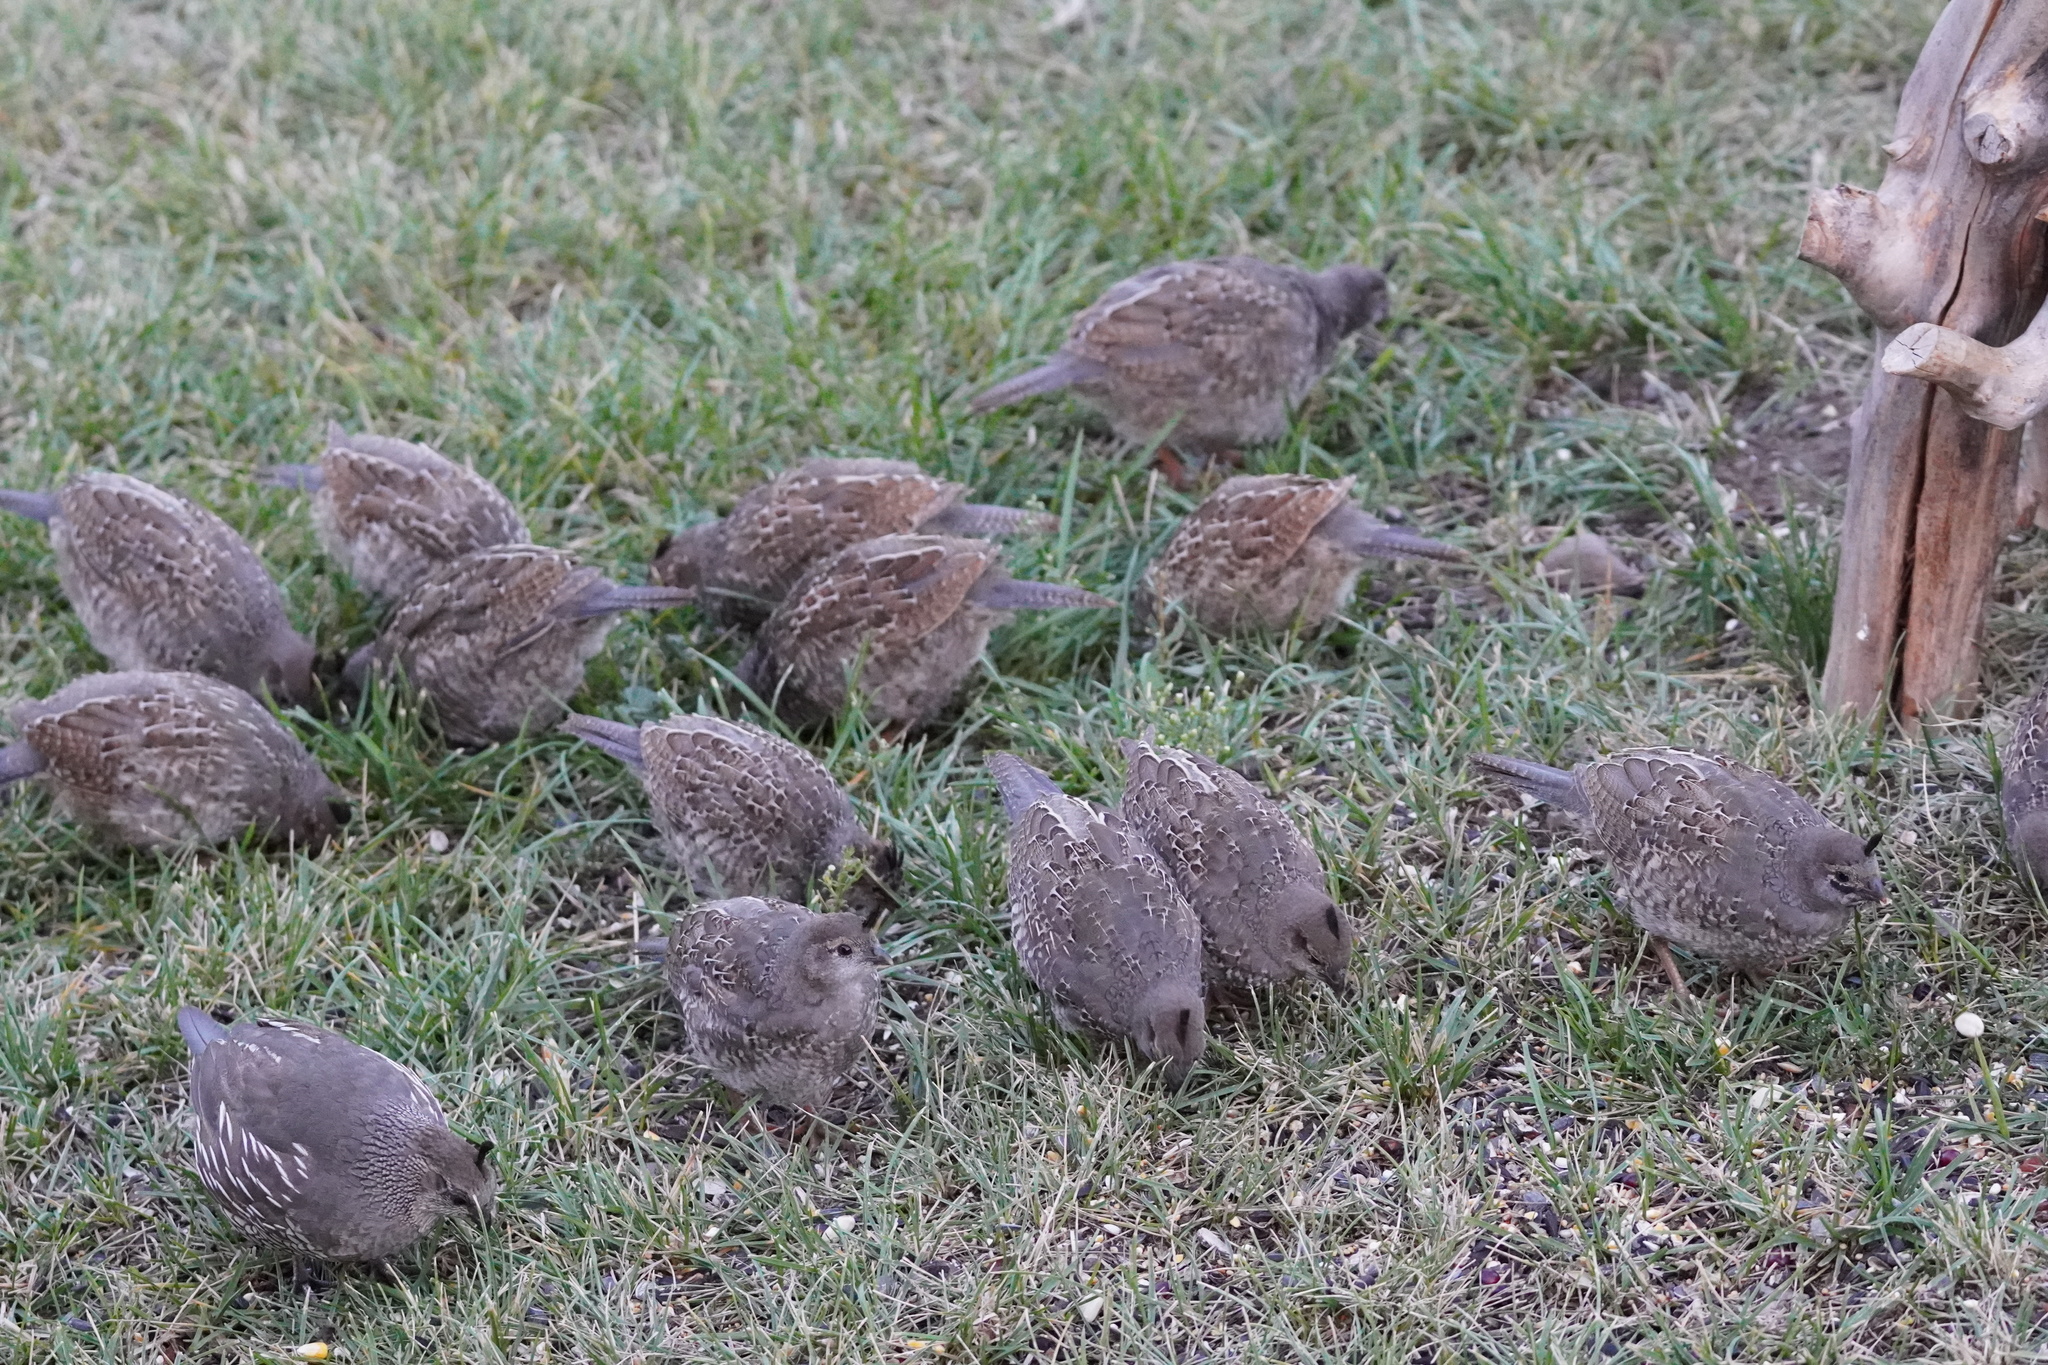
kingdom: Animalia
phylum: Chordata
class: Aves
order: Galliformes
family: Odontophoridae
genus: Callipepla
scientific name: Callipepla californica
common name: California quail
